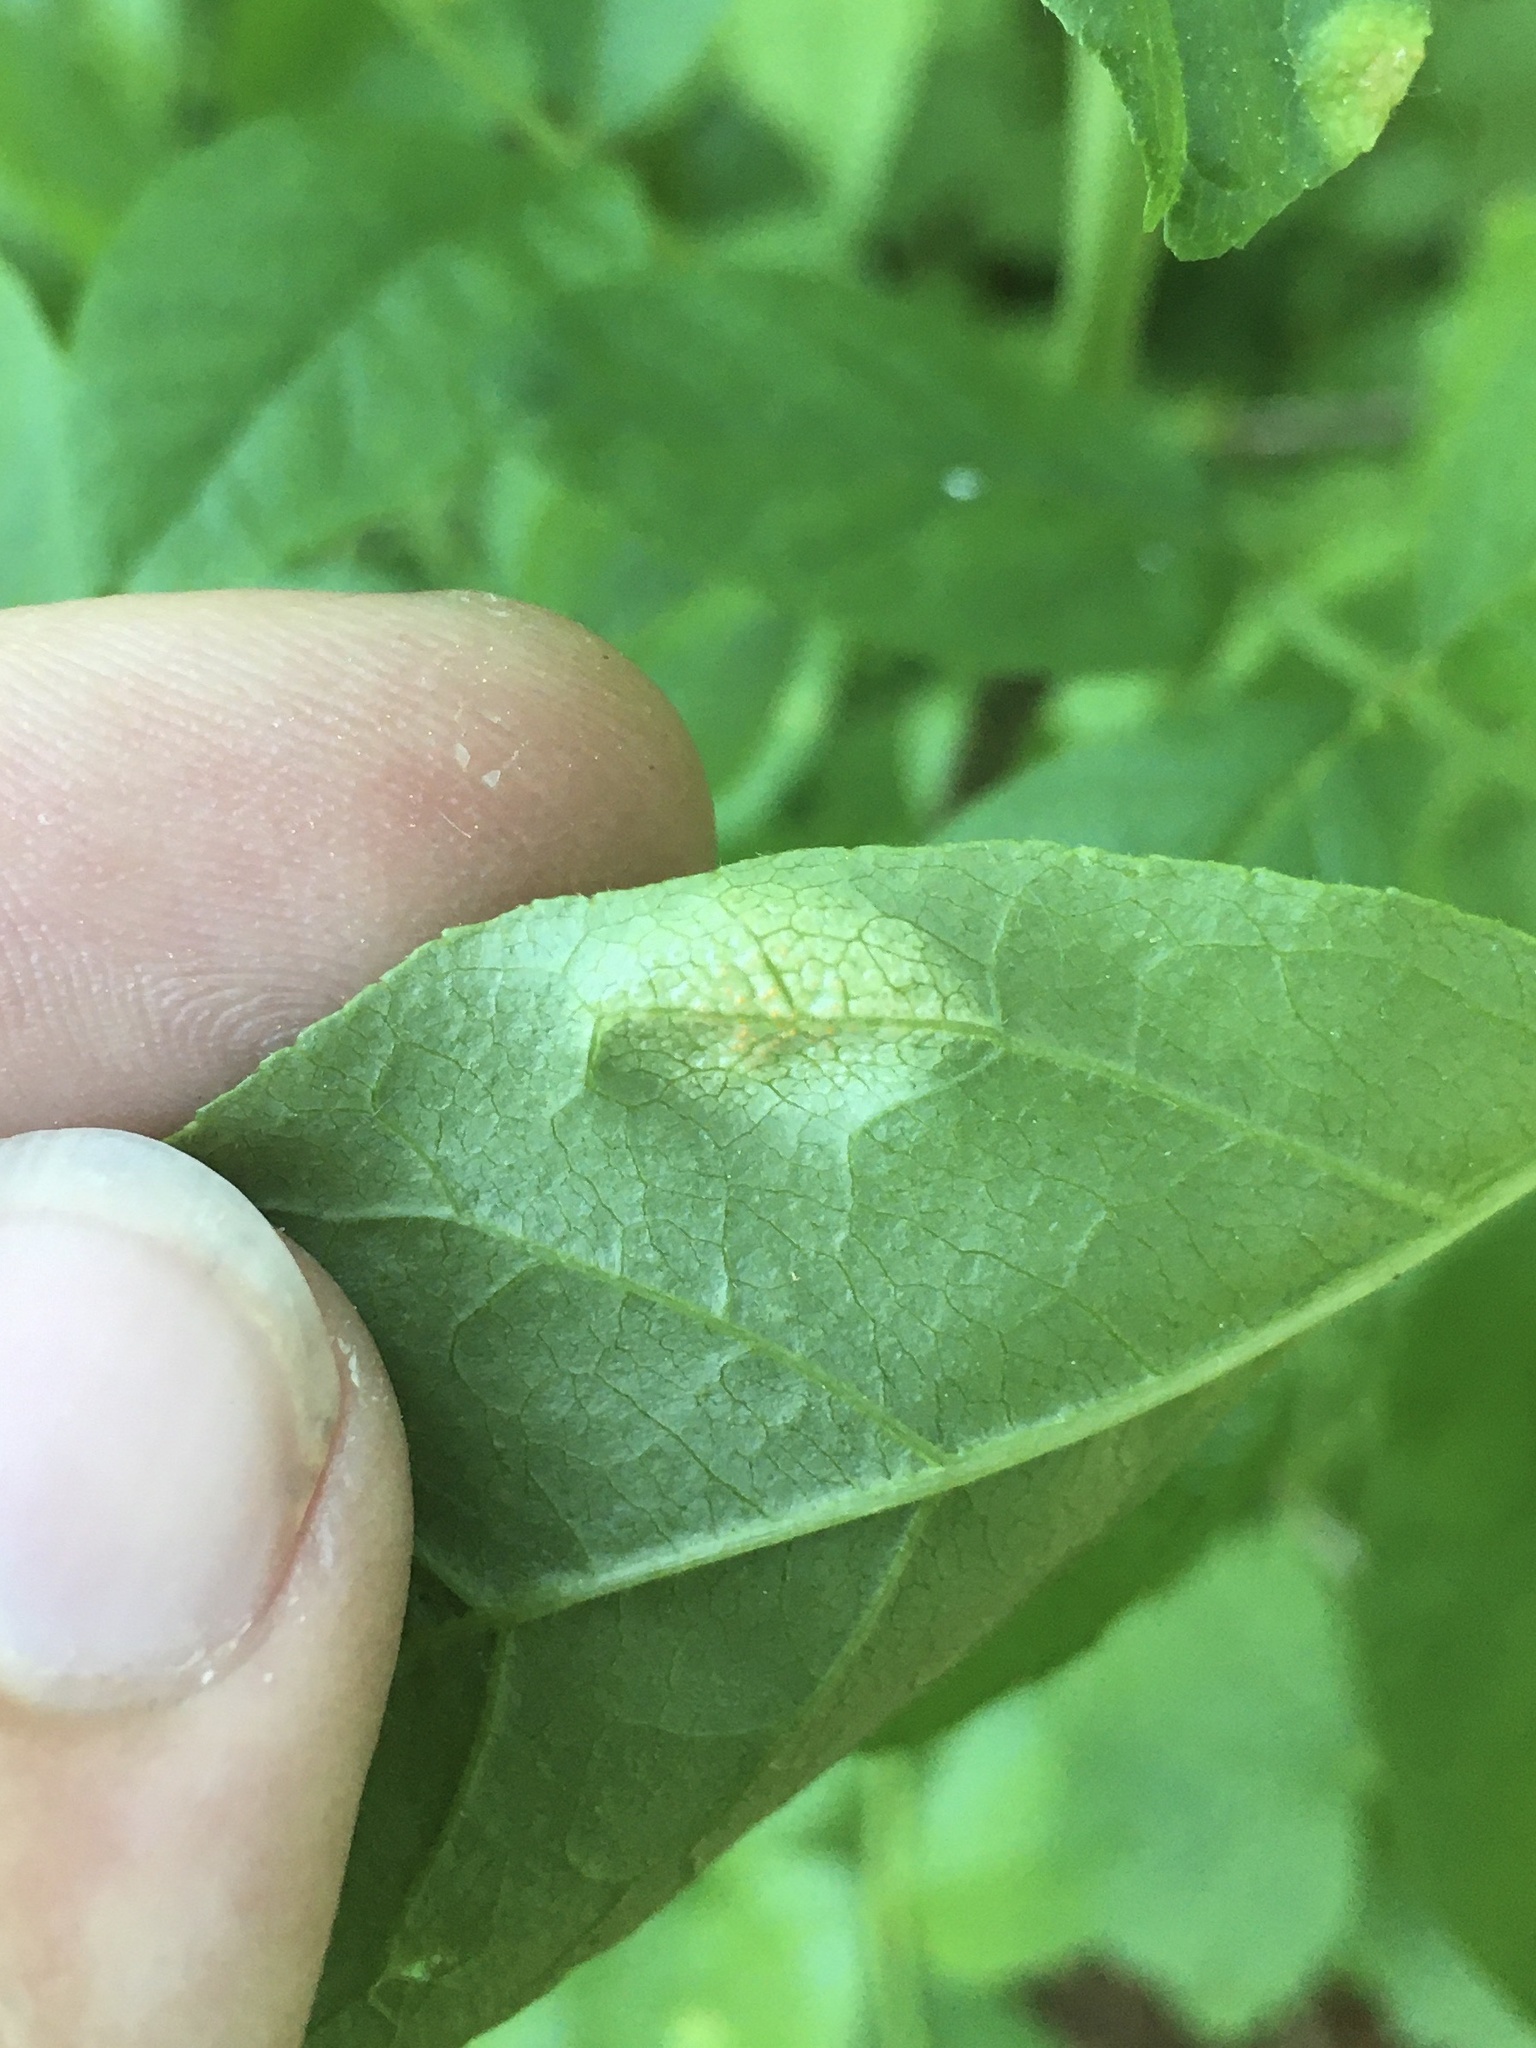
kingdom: Fungi
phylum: Basidiomycota
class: Pucciniomycetes
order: Pucciniales
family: Pucciniaceae
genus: Puccinia
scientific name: Puccinia andropogonis
